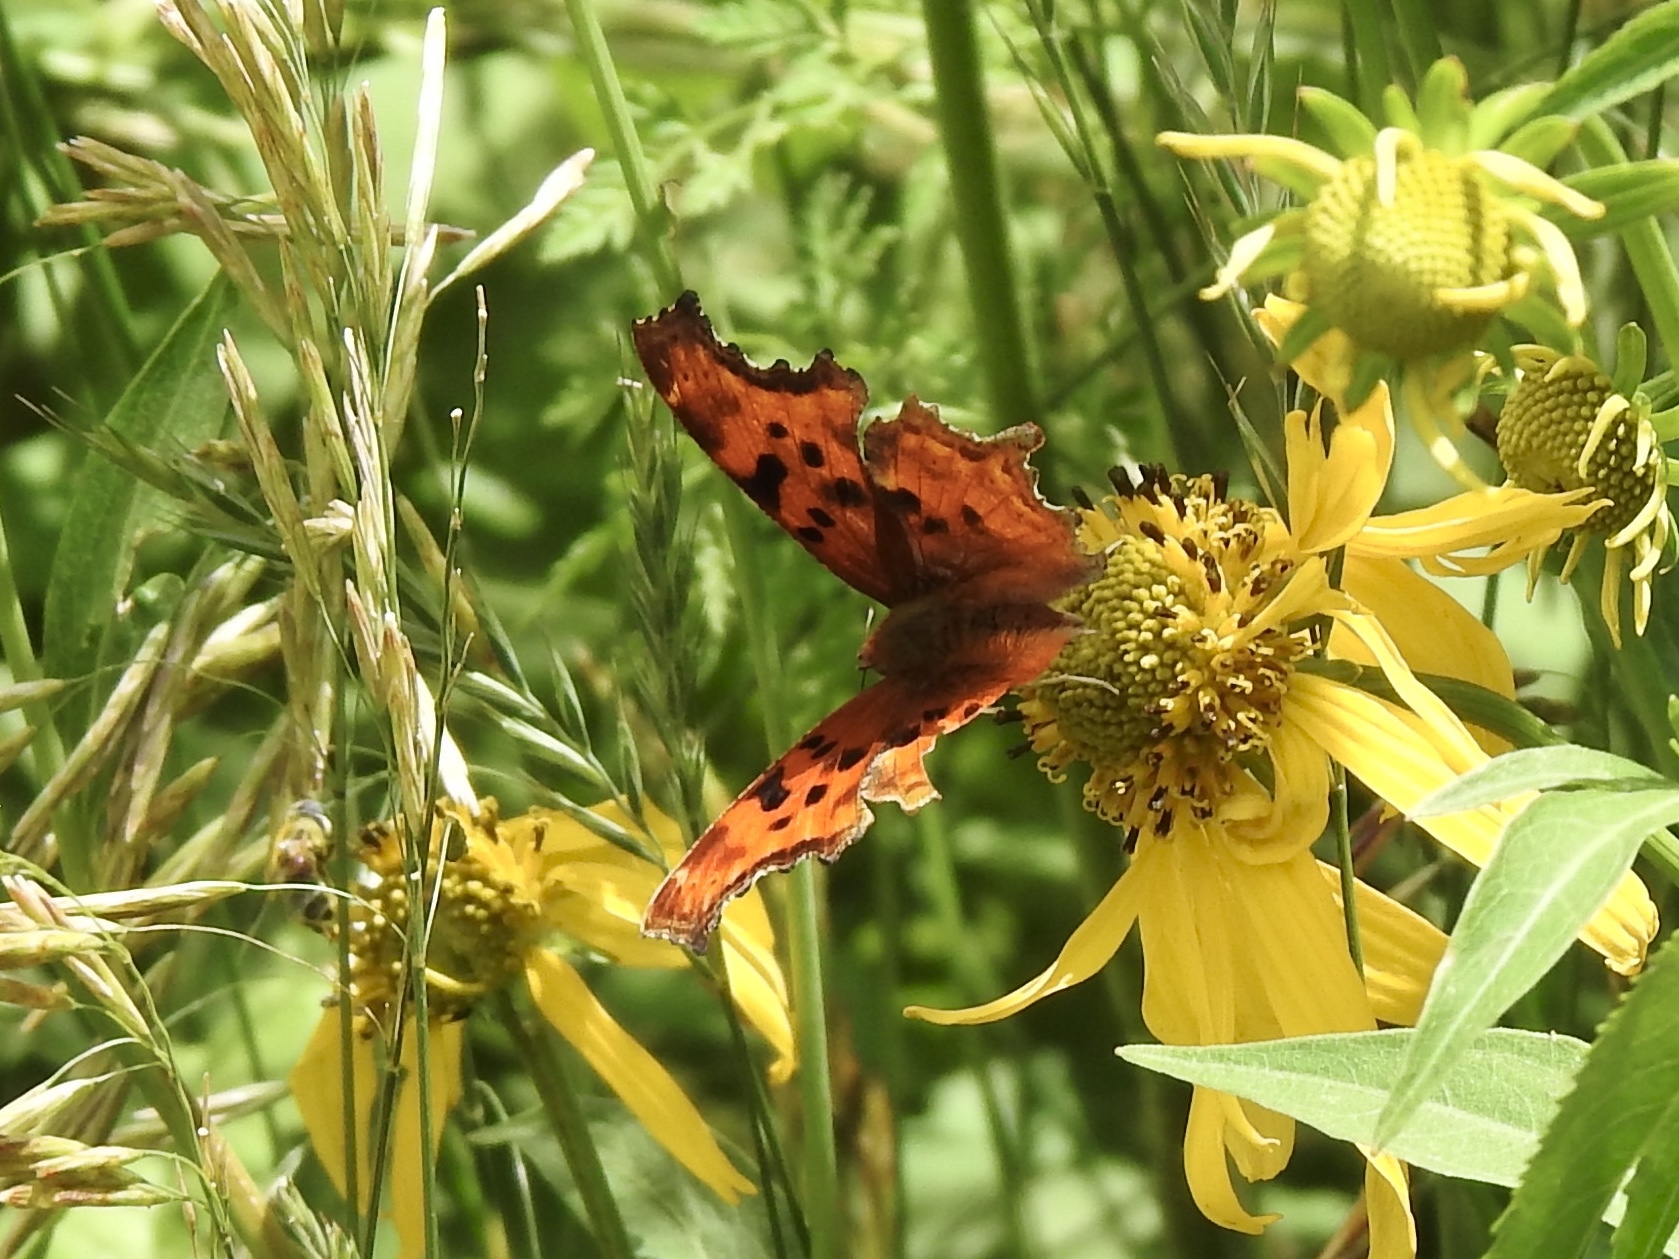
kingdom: Animalia
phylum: Arthropoda
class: Insecta
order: Lepidoptera
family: Nymphalidae
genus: Polygonia
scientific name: Polygonia satyrus
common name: Satyr angle wing
